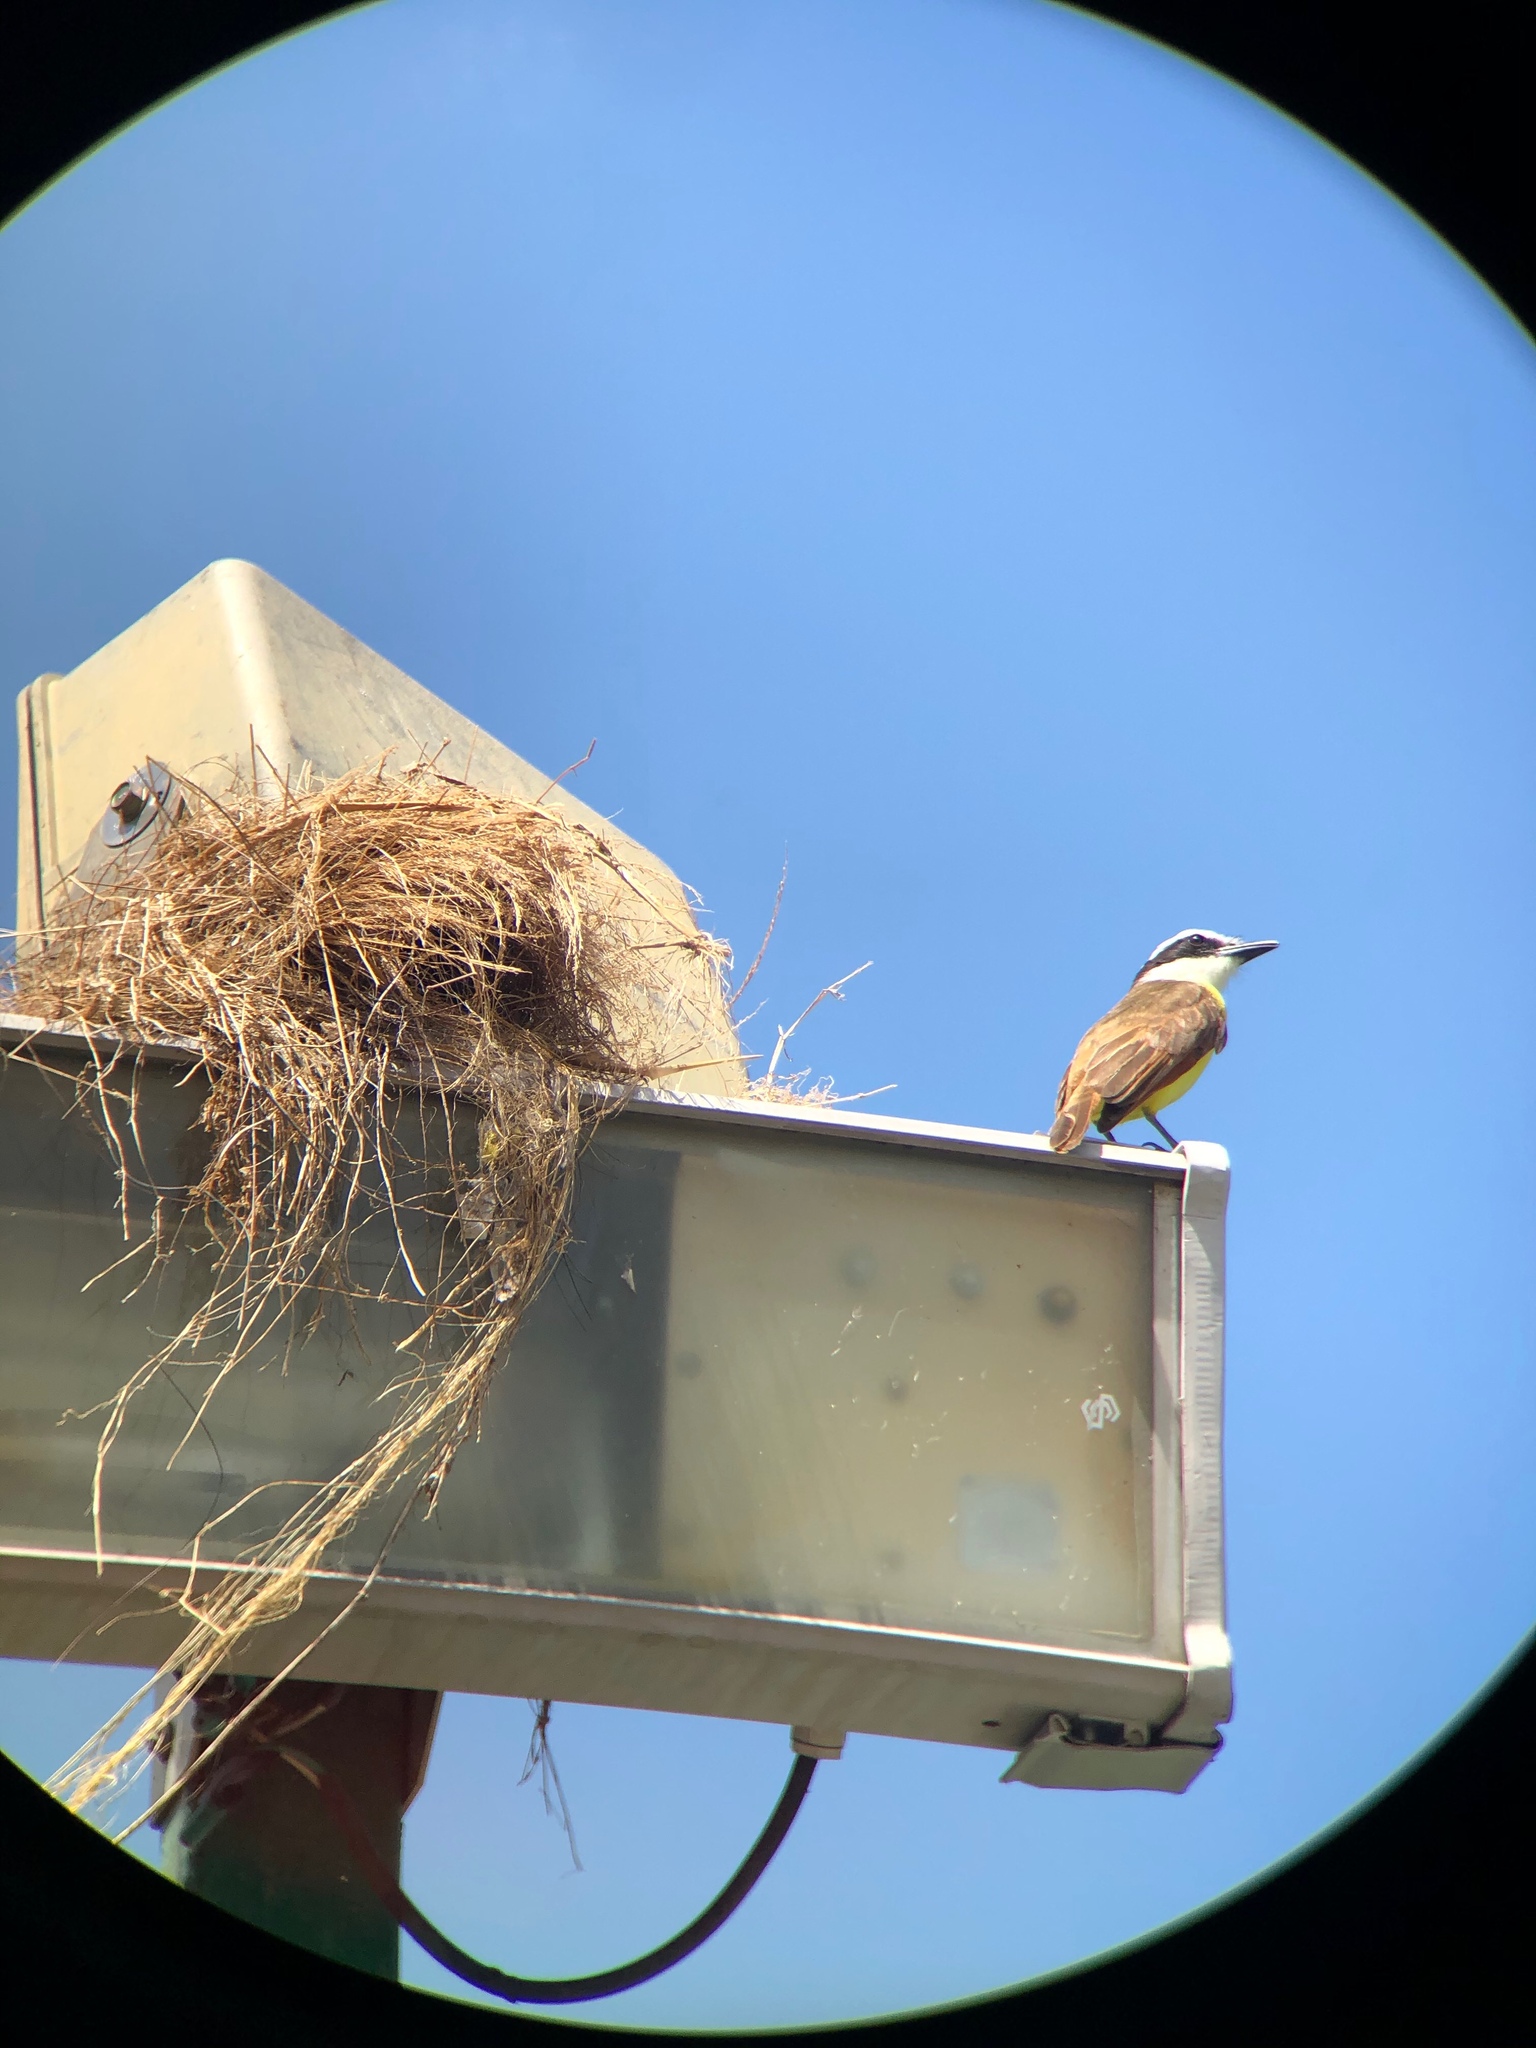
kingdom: Animalia
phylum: Chordata
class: Aves
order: Passeriformes
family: Tyrannidae
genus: Pitangus
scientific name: Pitangus sulphuratus
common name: Great kiskadee
